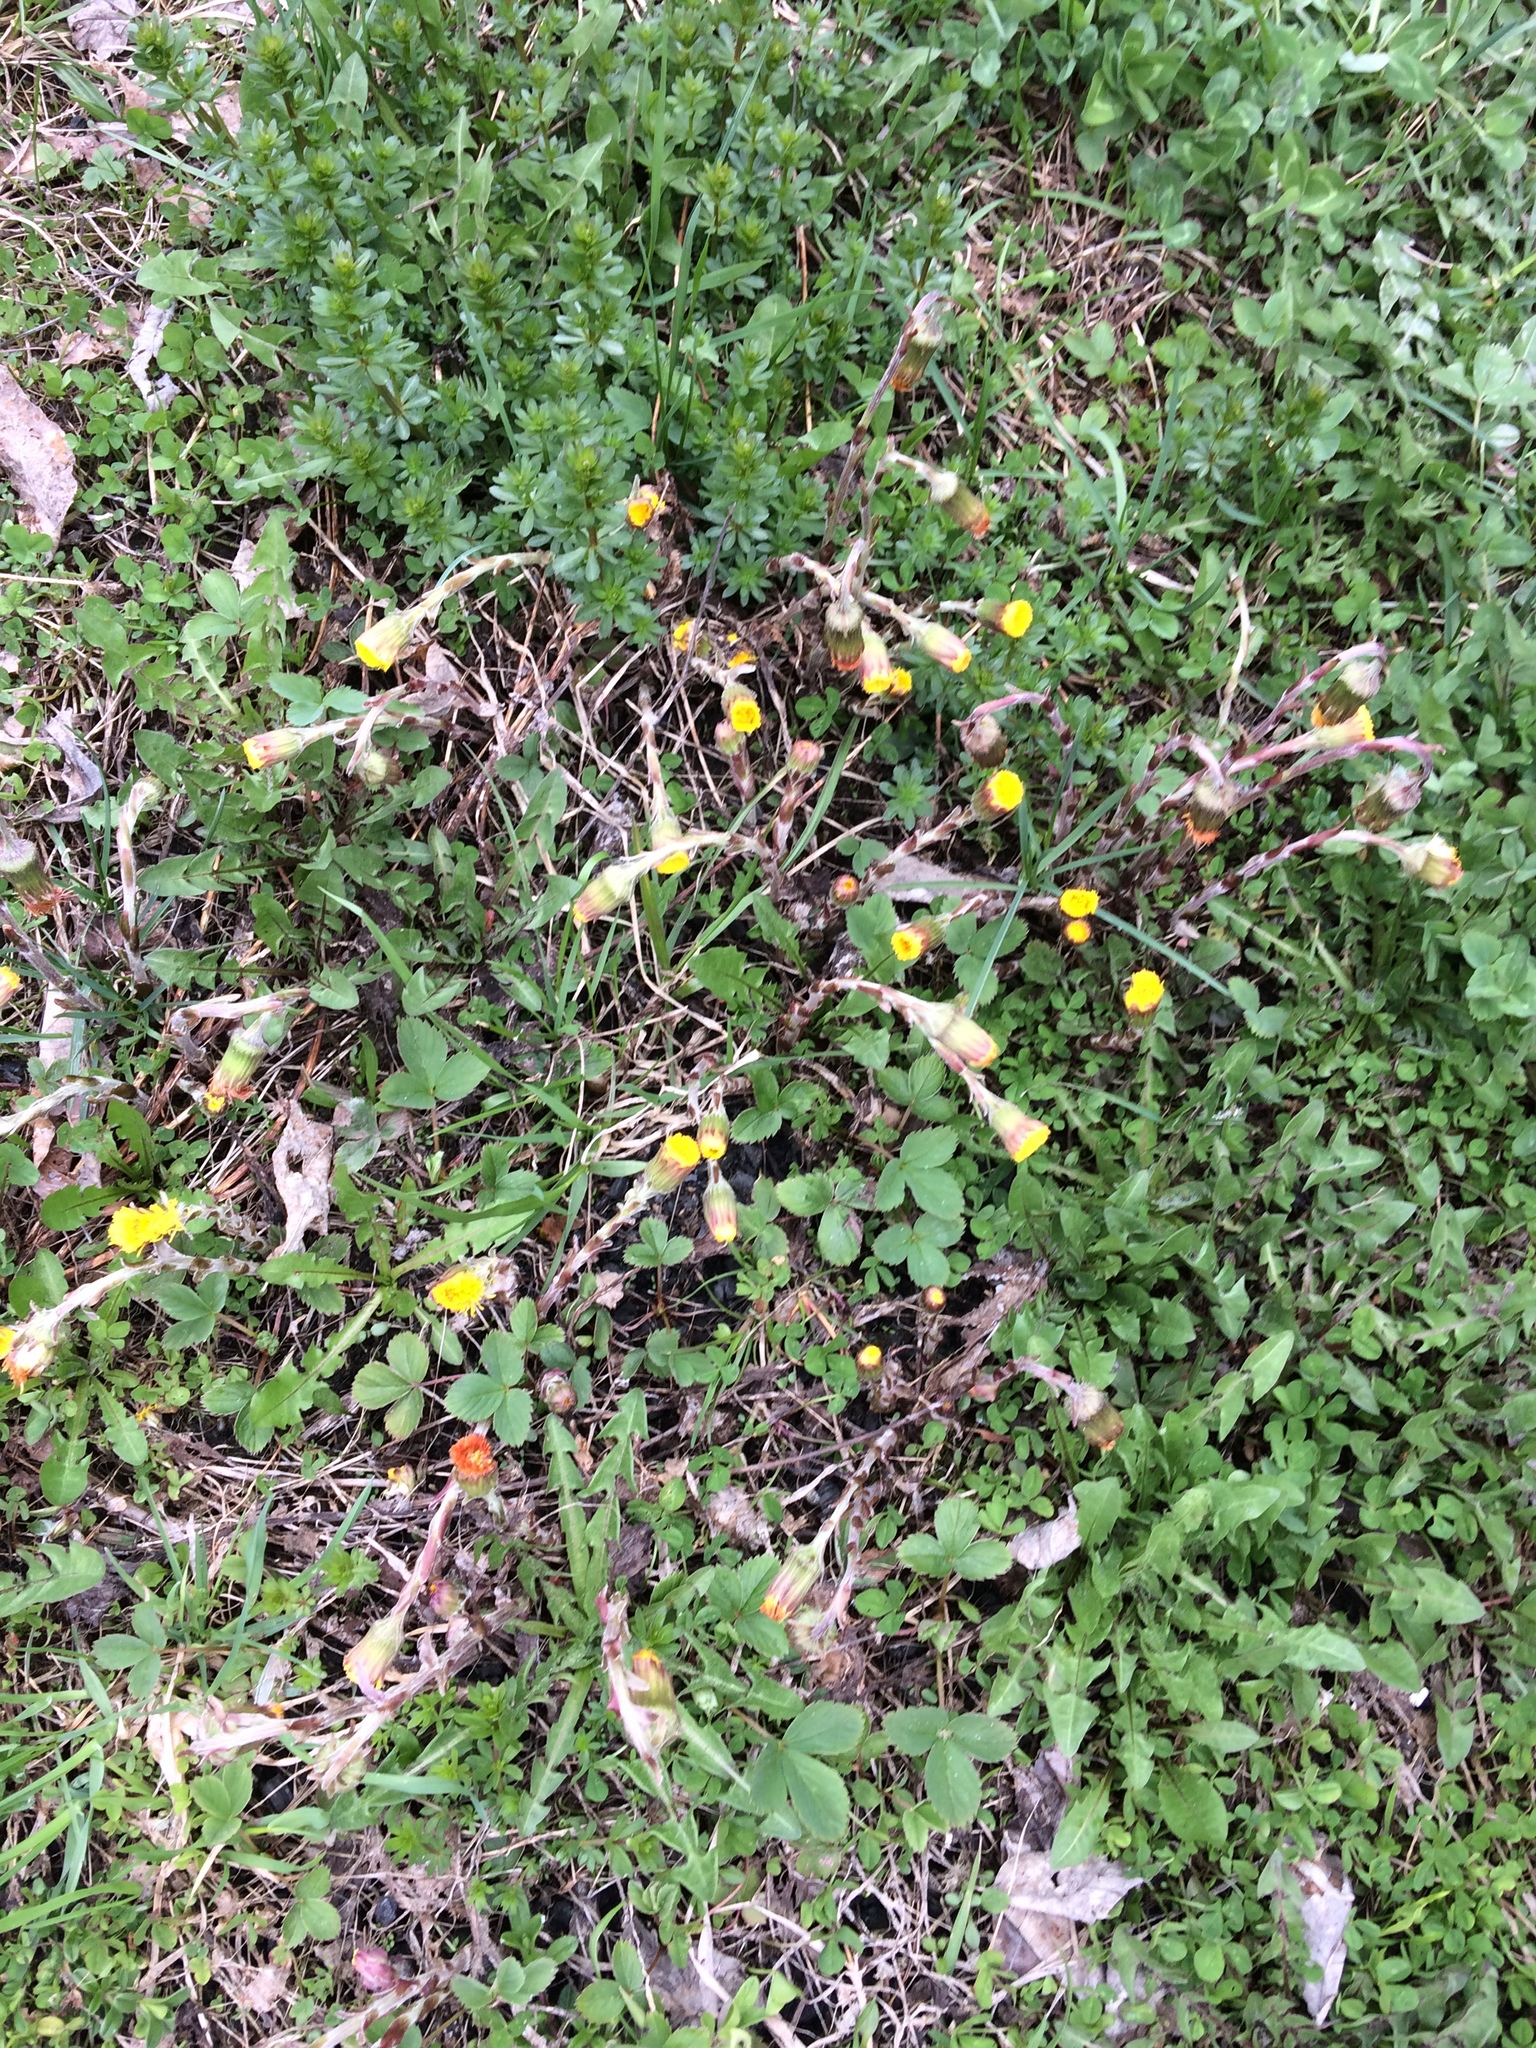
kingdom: Plantae
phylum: Tracheophyta
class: Magnoliopsida
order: Asterales
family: Asteraceae
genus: Tussilago
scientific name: Tussilago farfara
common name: Coltsfoot
